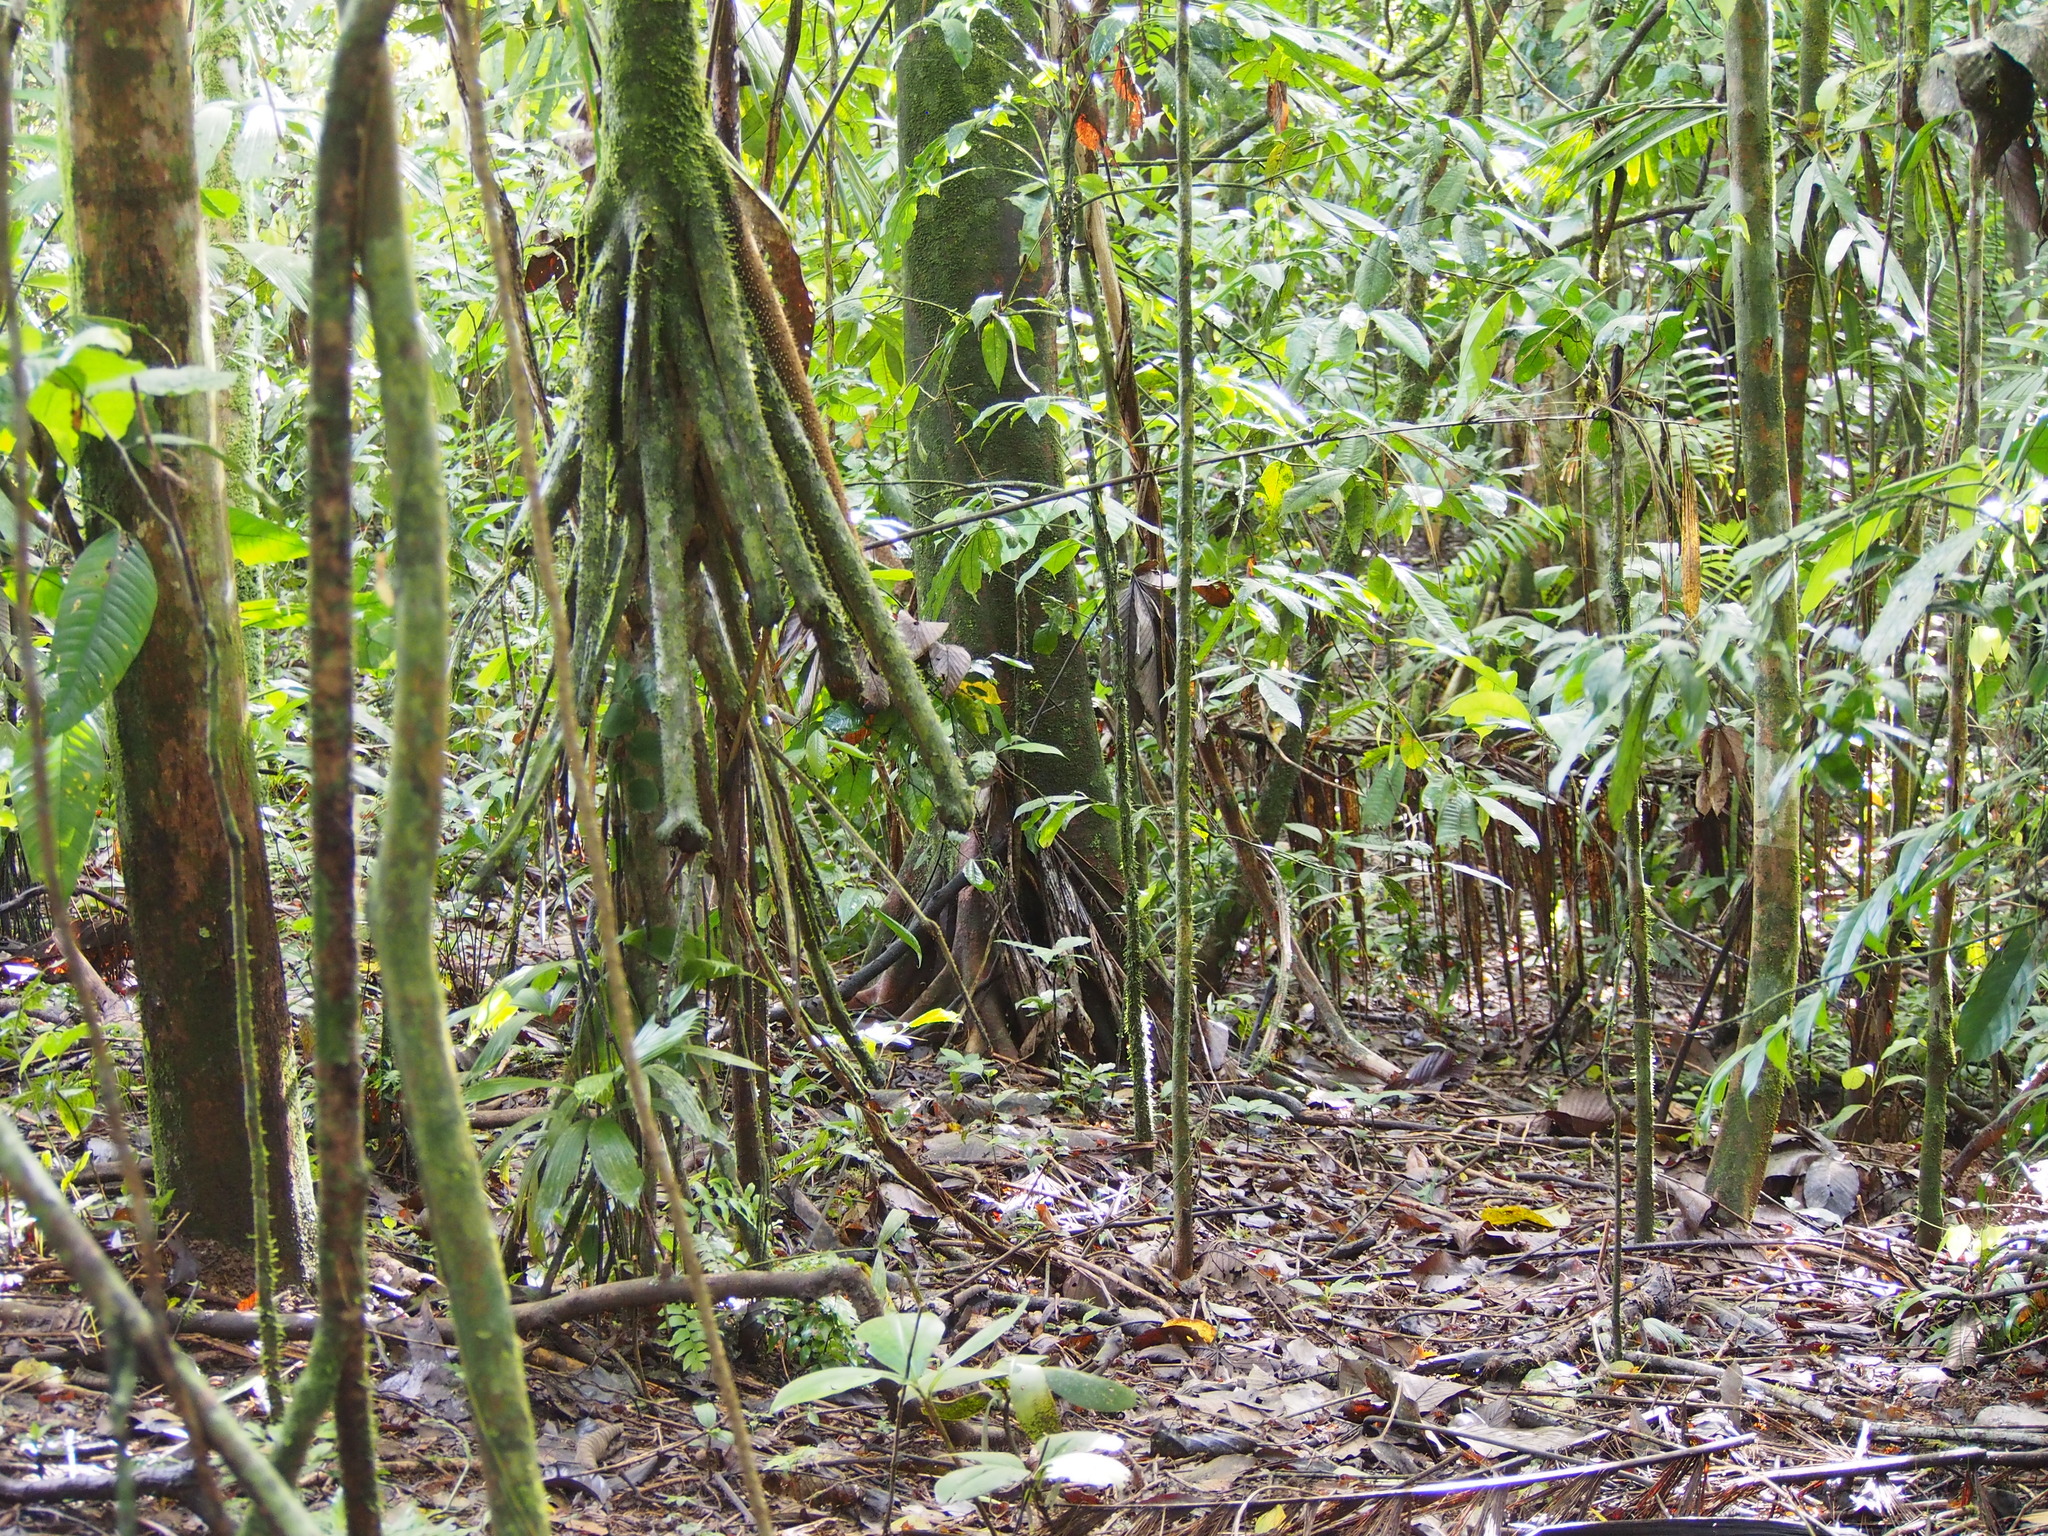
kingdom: Plantae
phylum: Tracheophyta
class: Liliopsida
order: Arecales
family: Arecaceae
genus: Socratea
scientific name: Socratea exorrhiza
